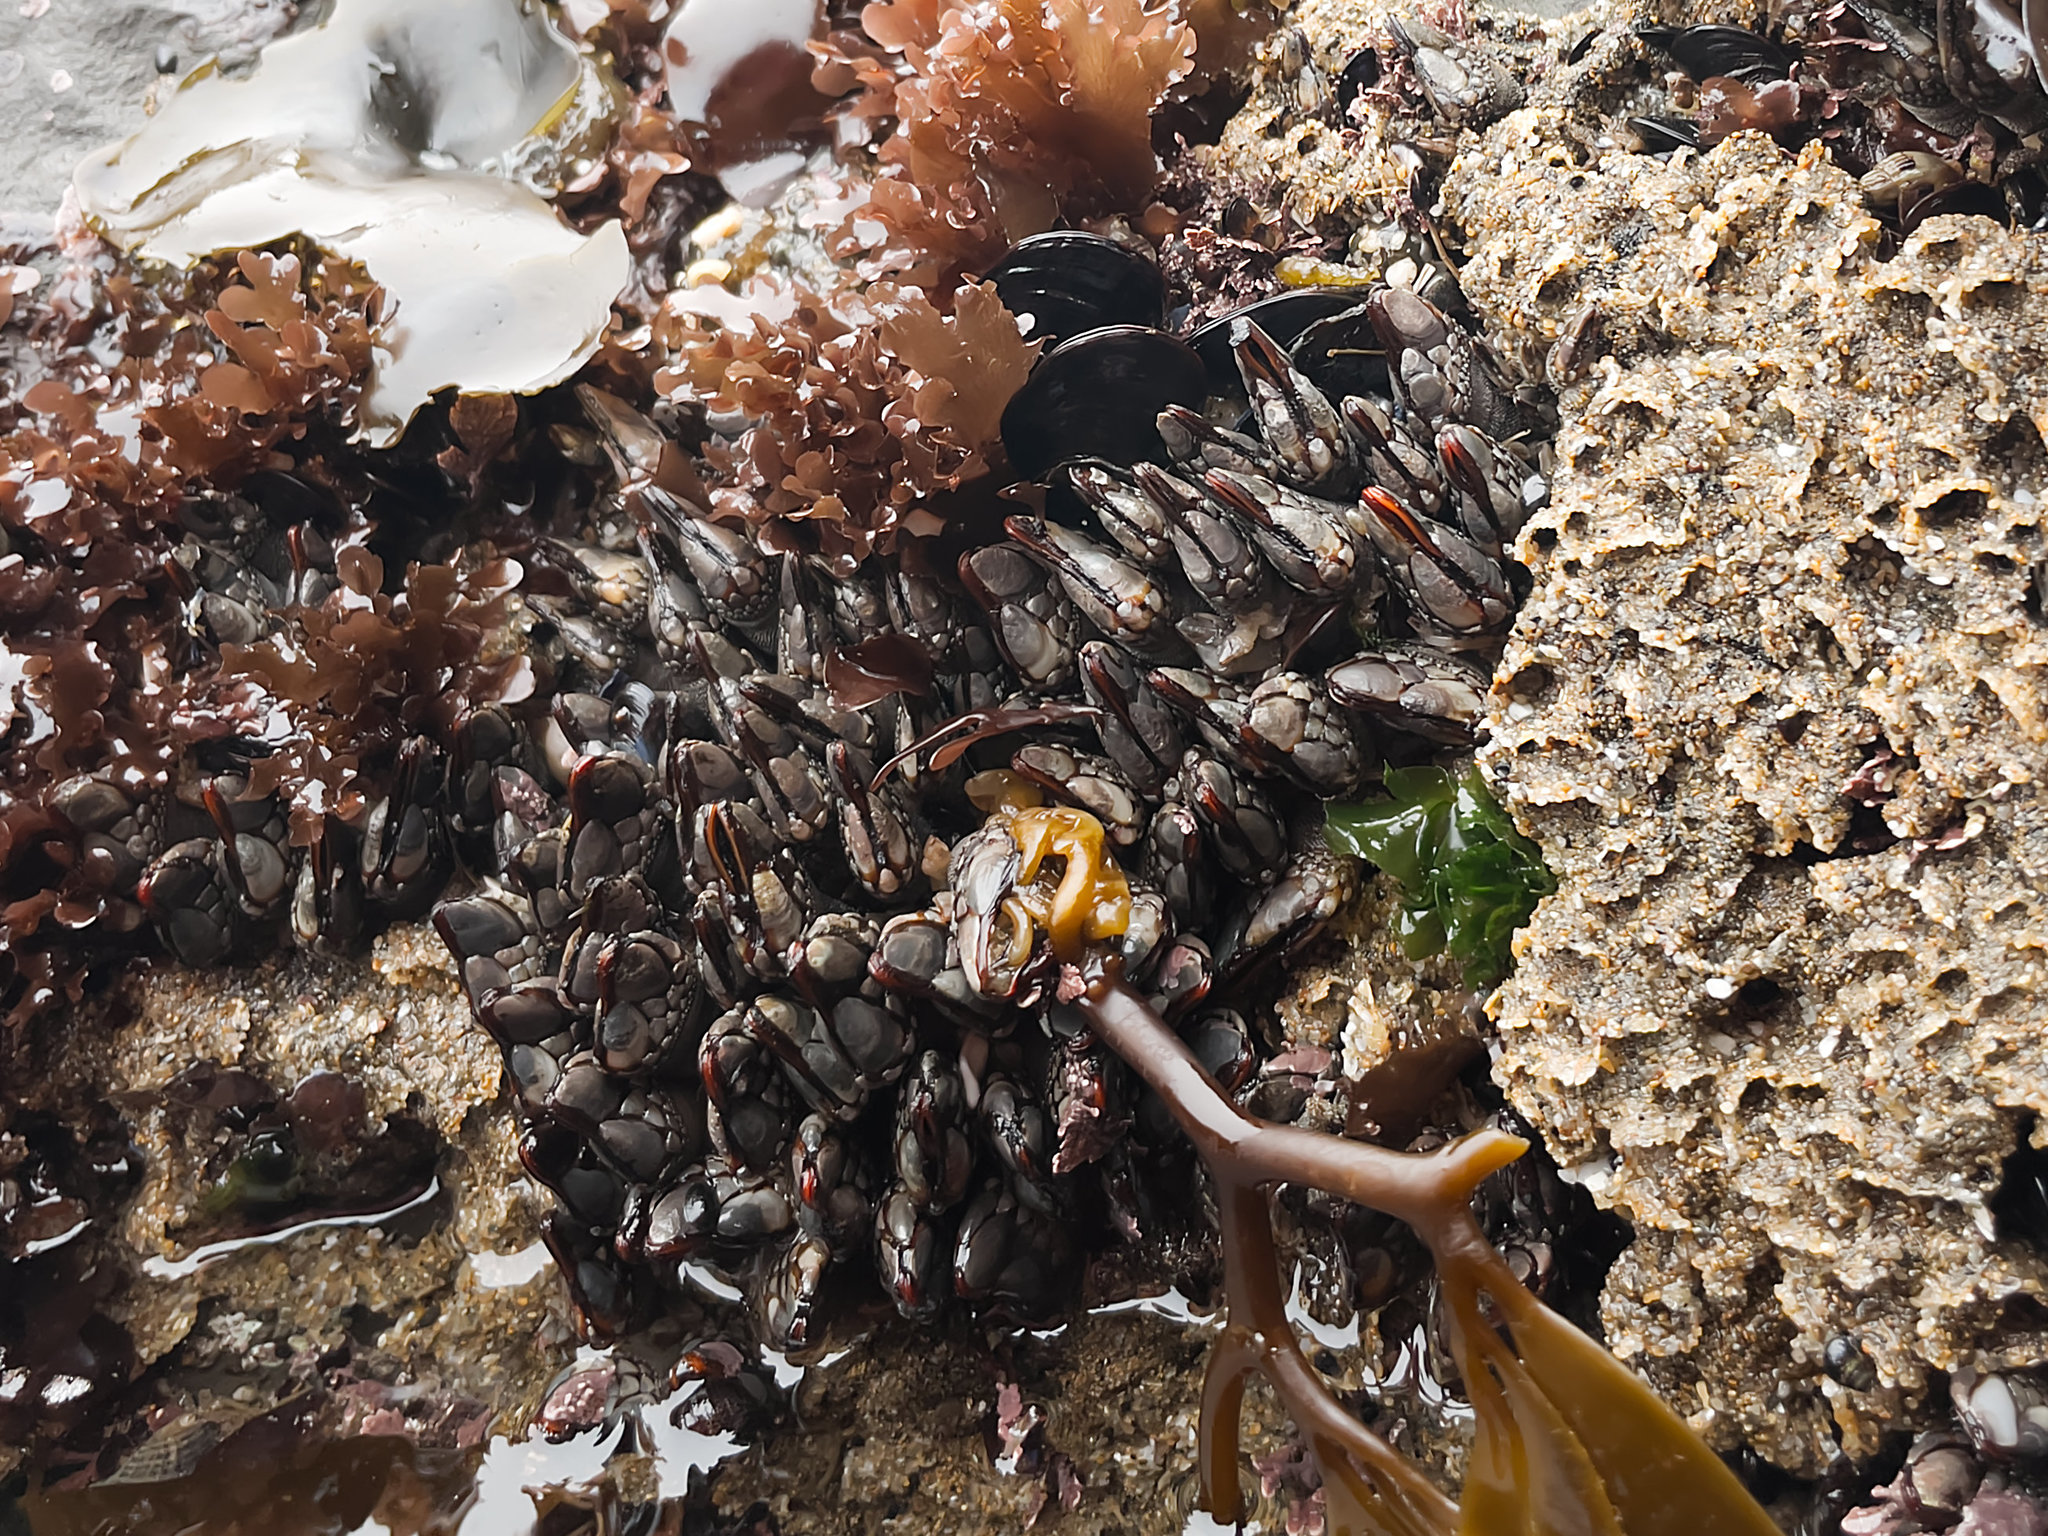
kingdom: Animalia
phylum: Arthropoda
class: Maxillopoda
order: Pedunculata
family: Pollicipedidae
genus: Pollicipes
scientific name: Pollicipes polymerus
